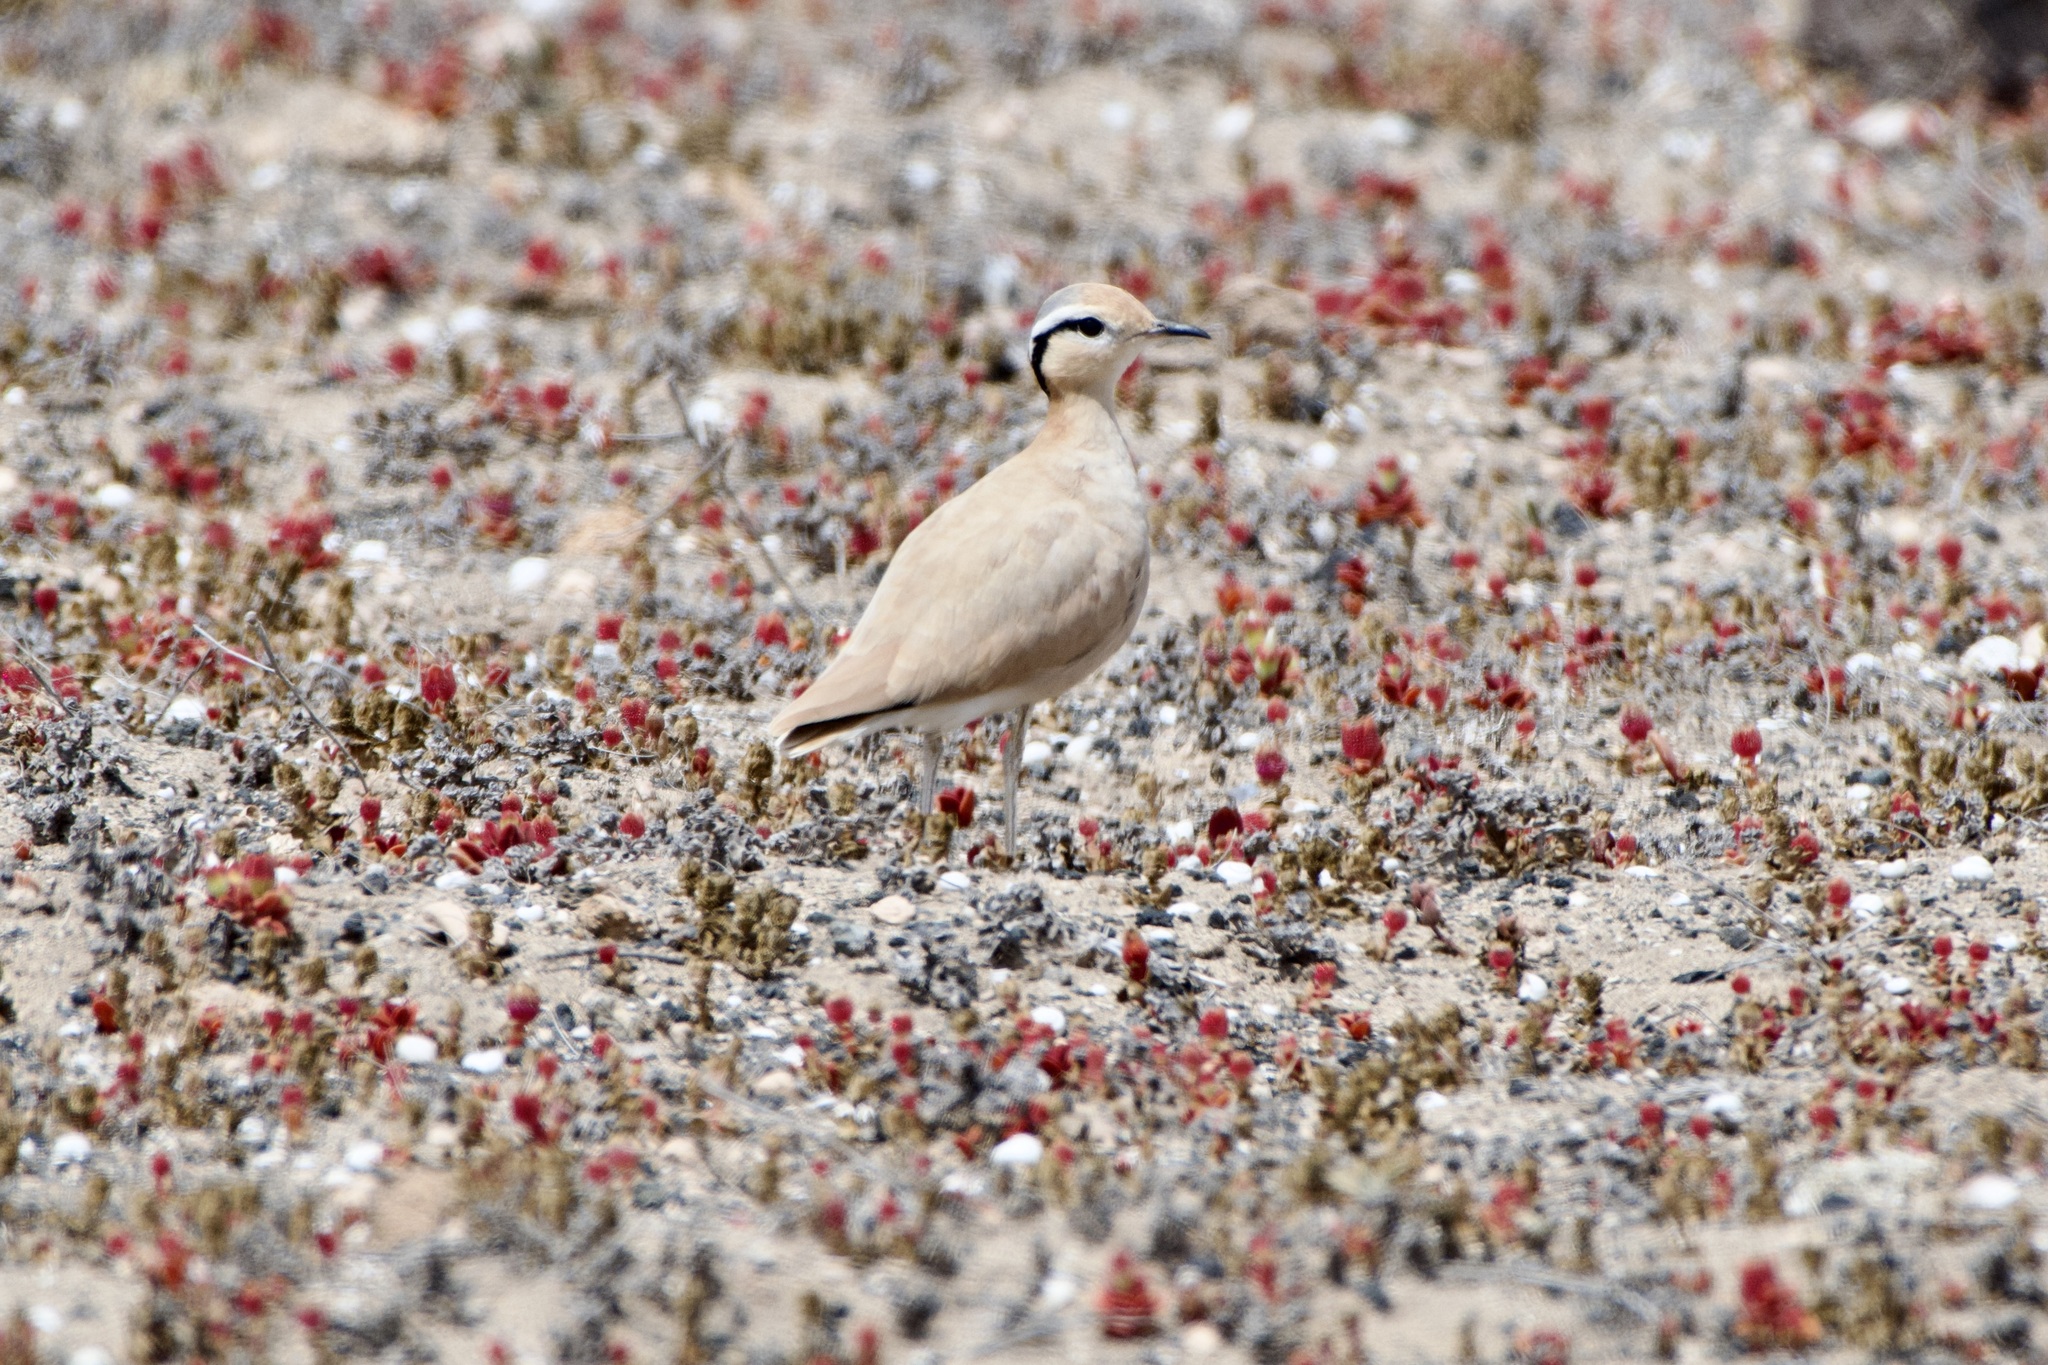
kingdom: Animalia
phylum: Chordata
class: Aves
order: Charadriiformes
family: Glareolidae
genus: Cursorius
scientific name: Cursorius cursor
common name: Cream-colored courser
